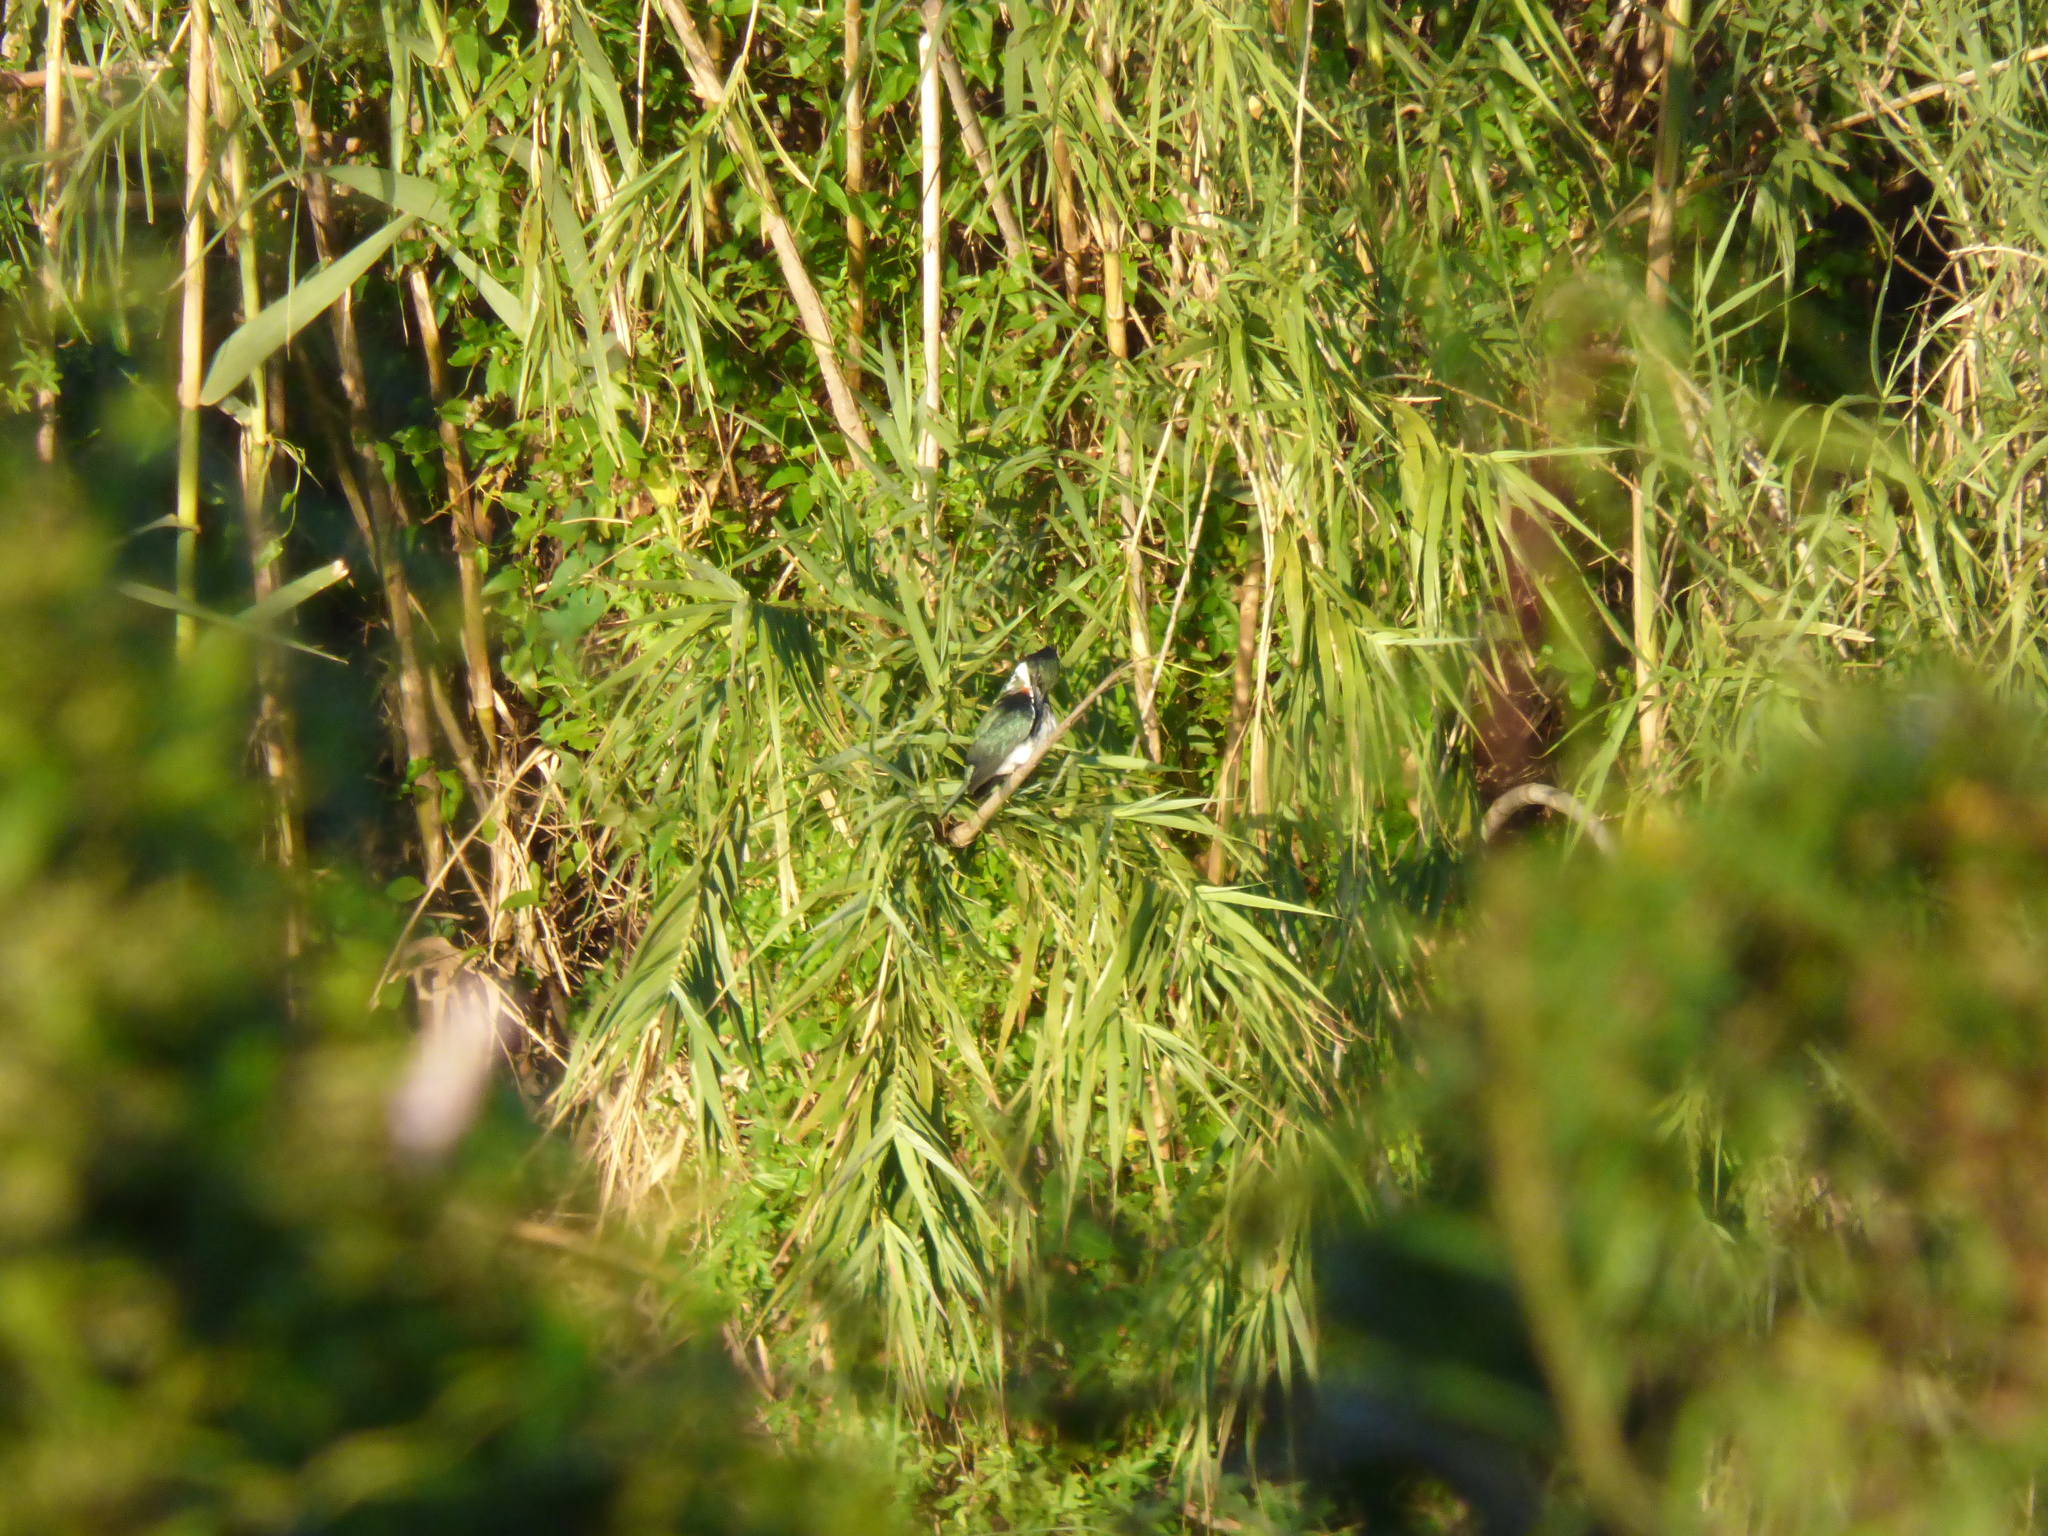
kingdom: Animalia
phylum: Chordata
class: Aves
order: Coraciiformes
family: Alcedinidae
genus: Chloroceryle
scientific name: Chloroceryle amazona
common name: Amazon kingfisher
